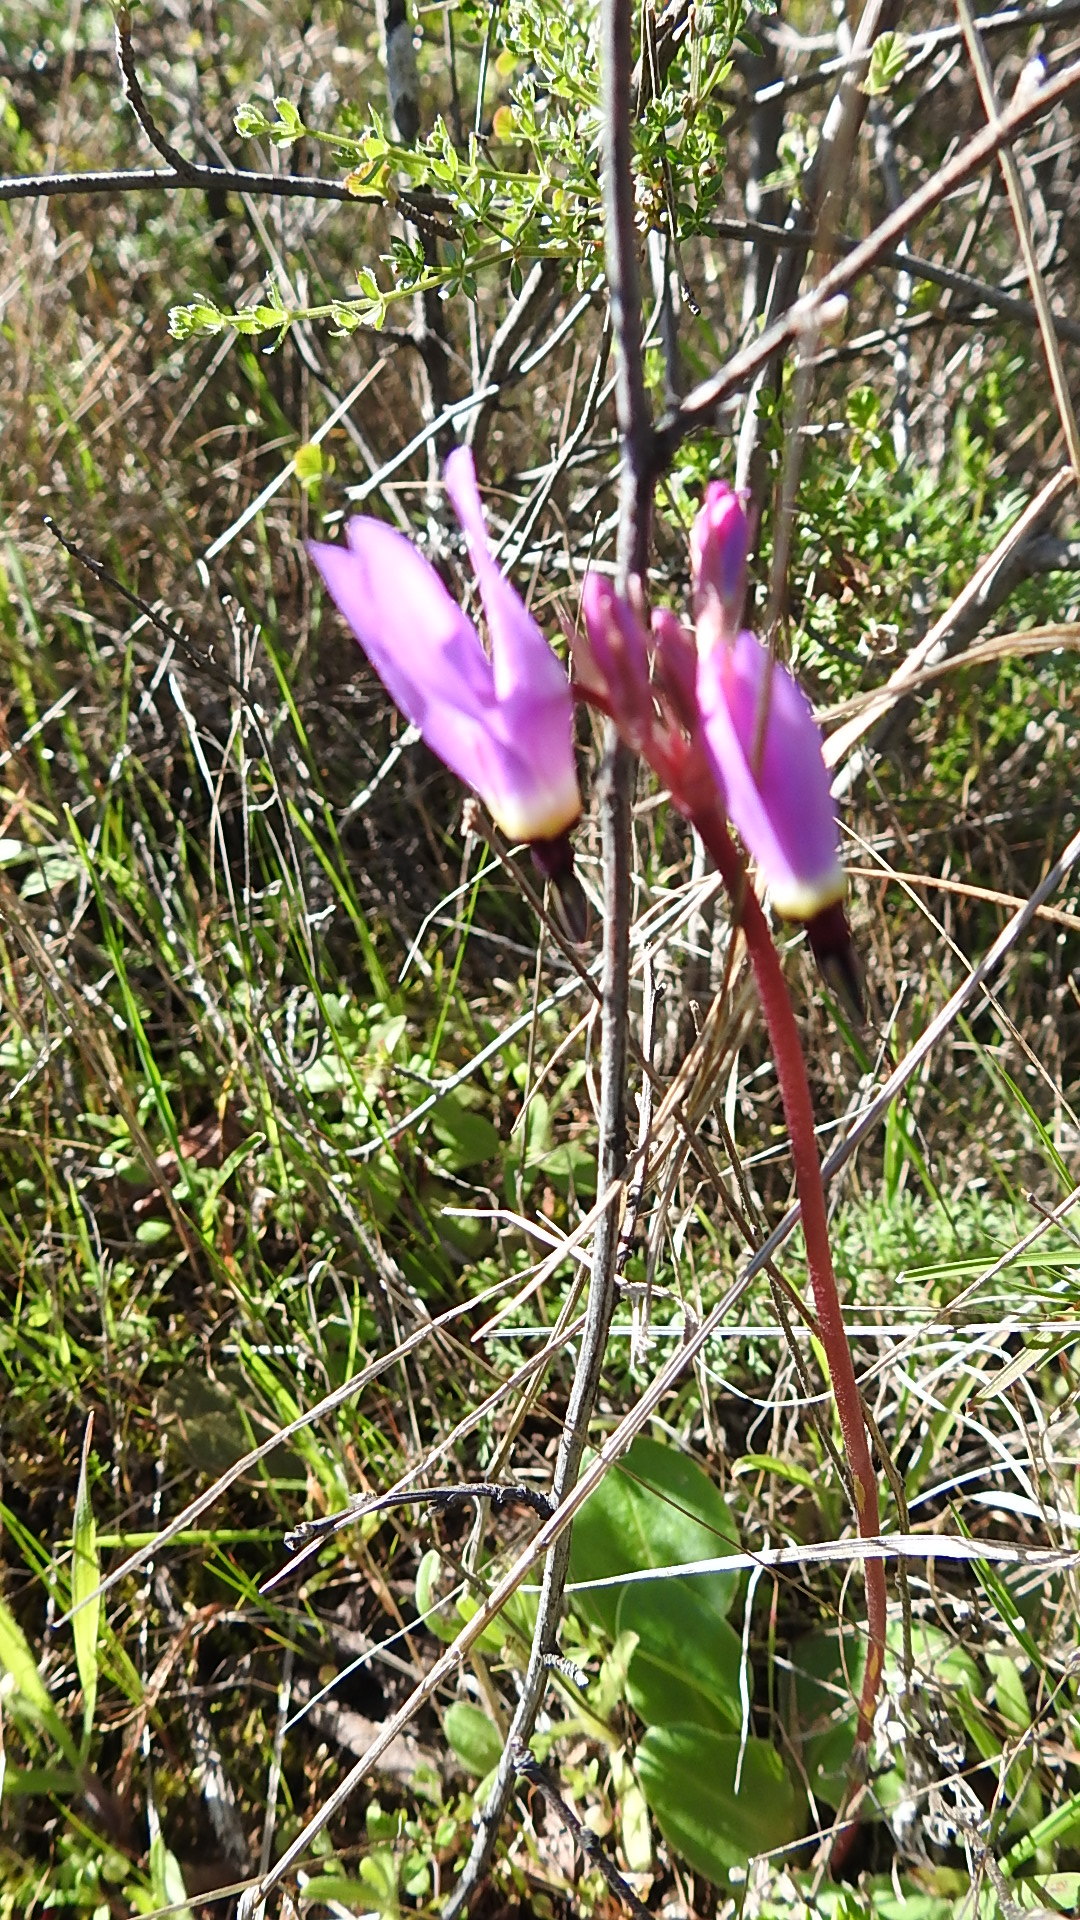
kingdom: Plantae
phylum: Tracheophyta
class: Magnoliopsida
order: Ericales
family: Primulaceae
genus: Dodecatheon
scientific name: Dodecatheon hendersonii
